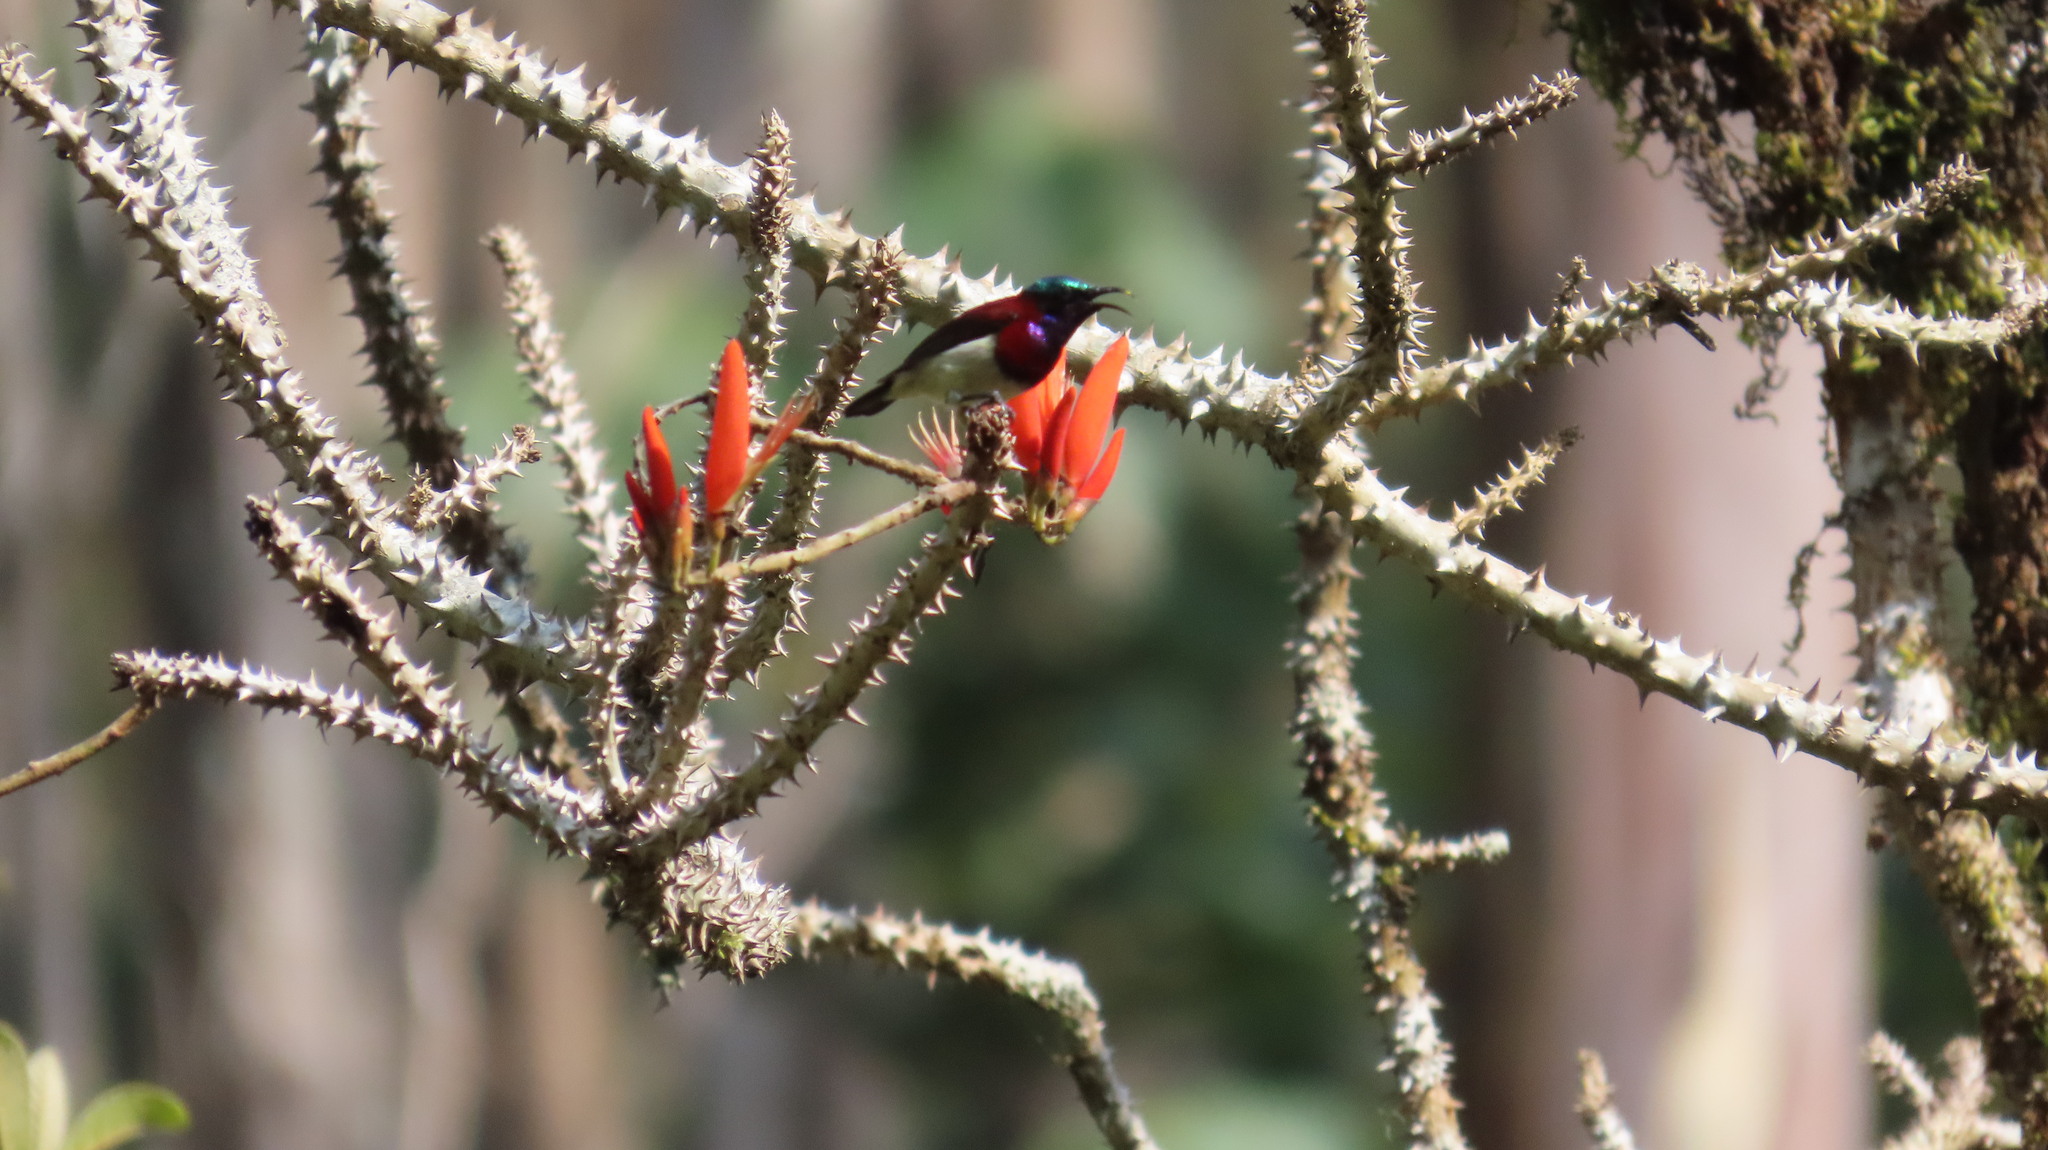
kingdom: Animalia
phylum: Chordata
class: Aves
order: Passeriformes
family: Nectariniidae
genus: Leptocoma
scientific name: Leptocoma minima
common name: Crimson-backed sunbird
